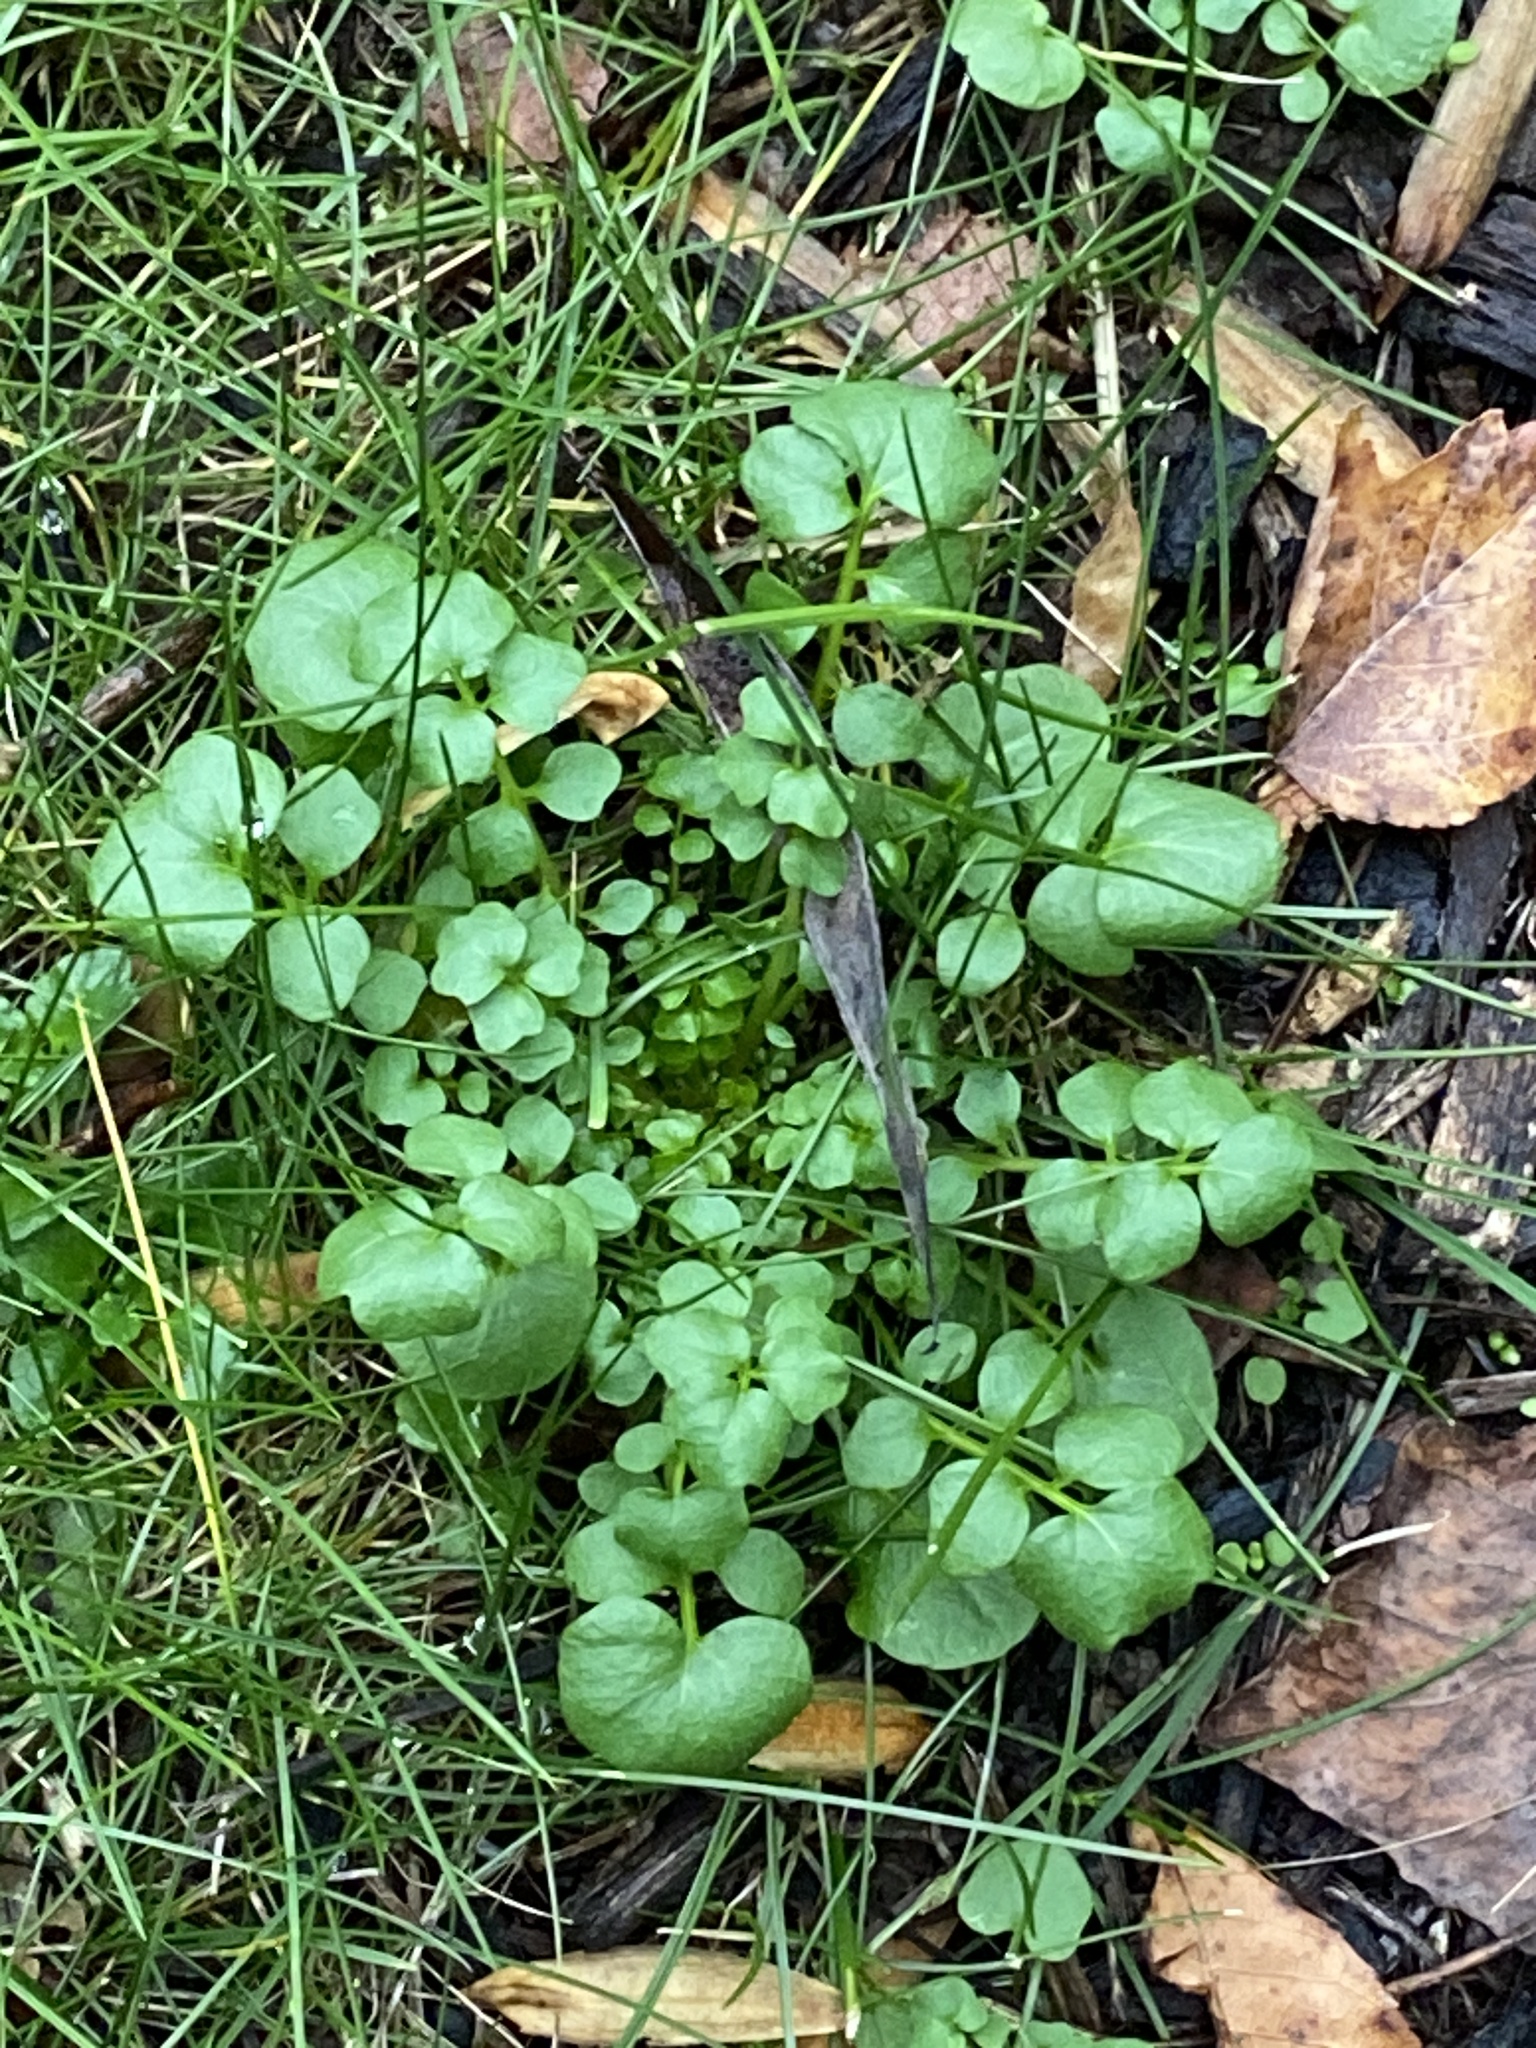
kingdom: Plantae
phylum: Tracheophyta
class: Magnoliopsida
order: Brassicales
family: Brassicaceae
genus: Cardamine
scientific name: Cardamine hirsuta
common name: Hairy bittercress
